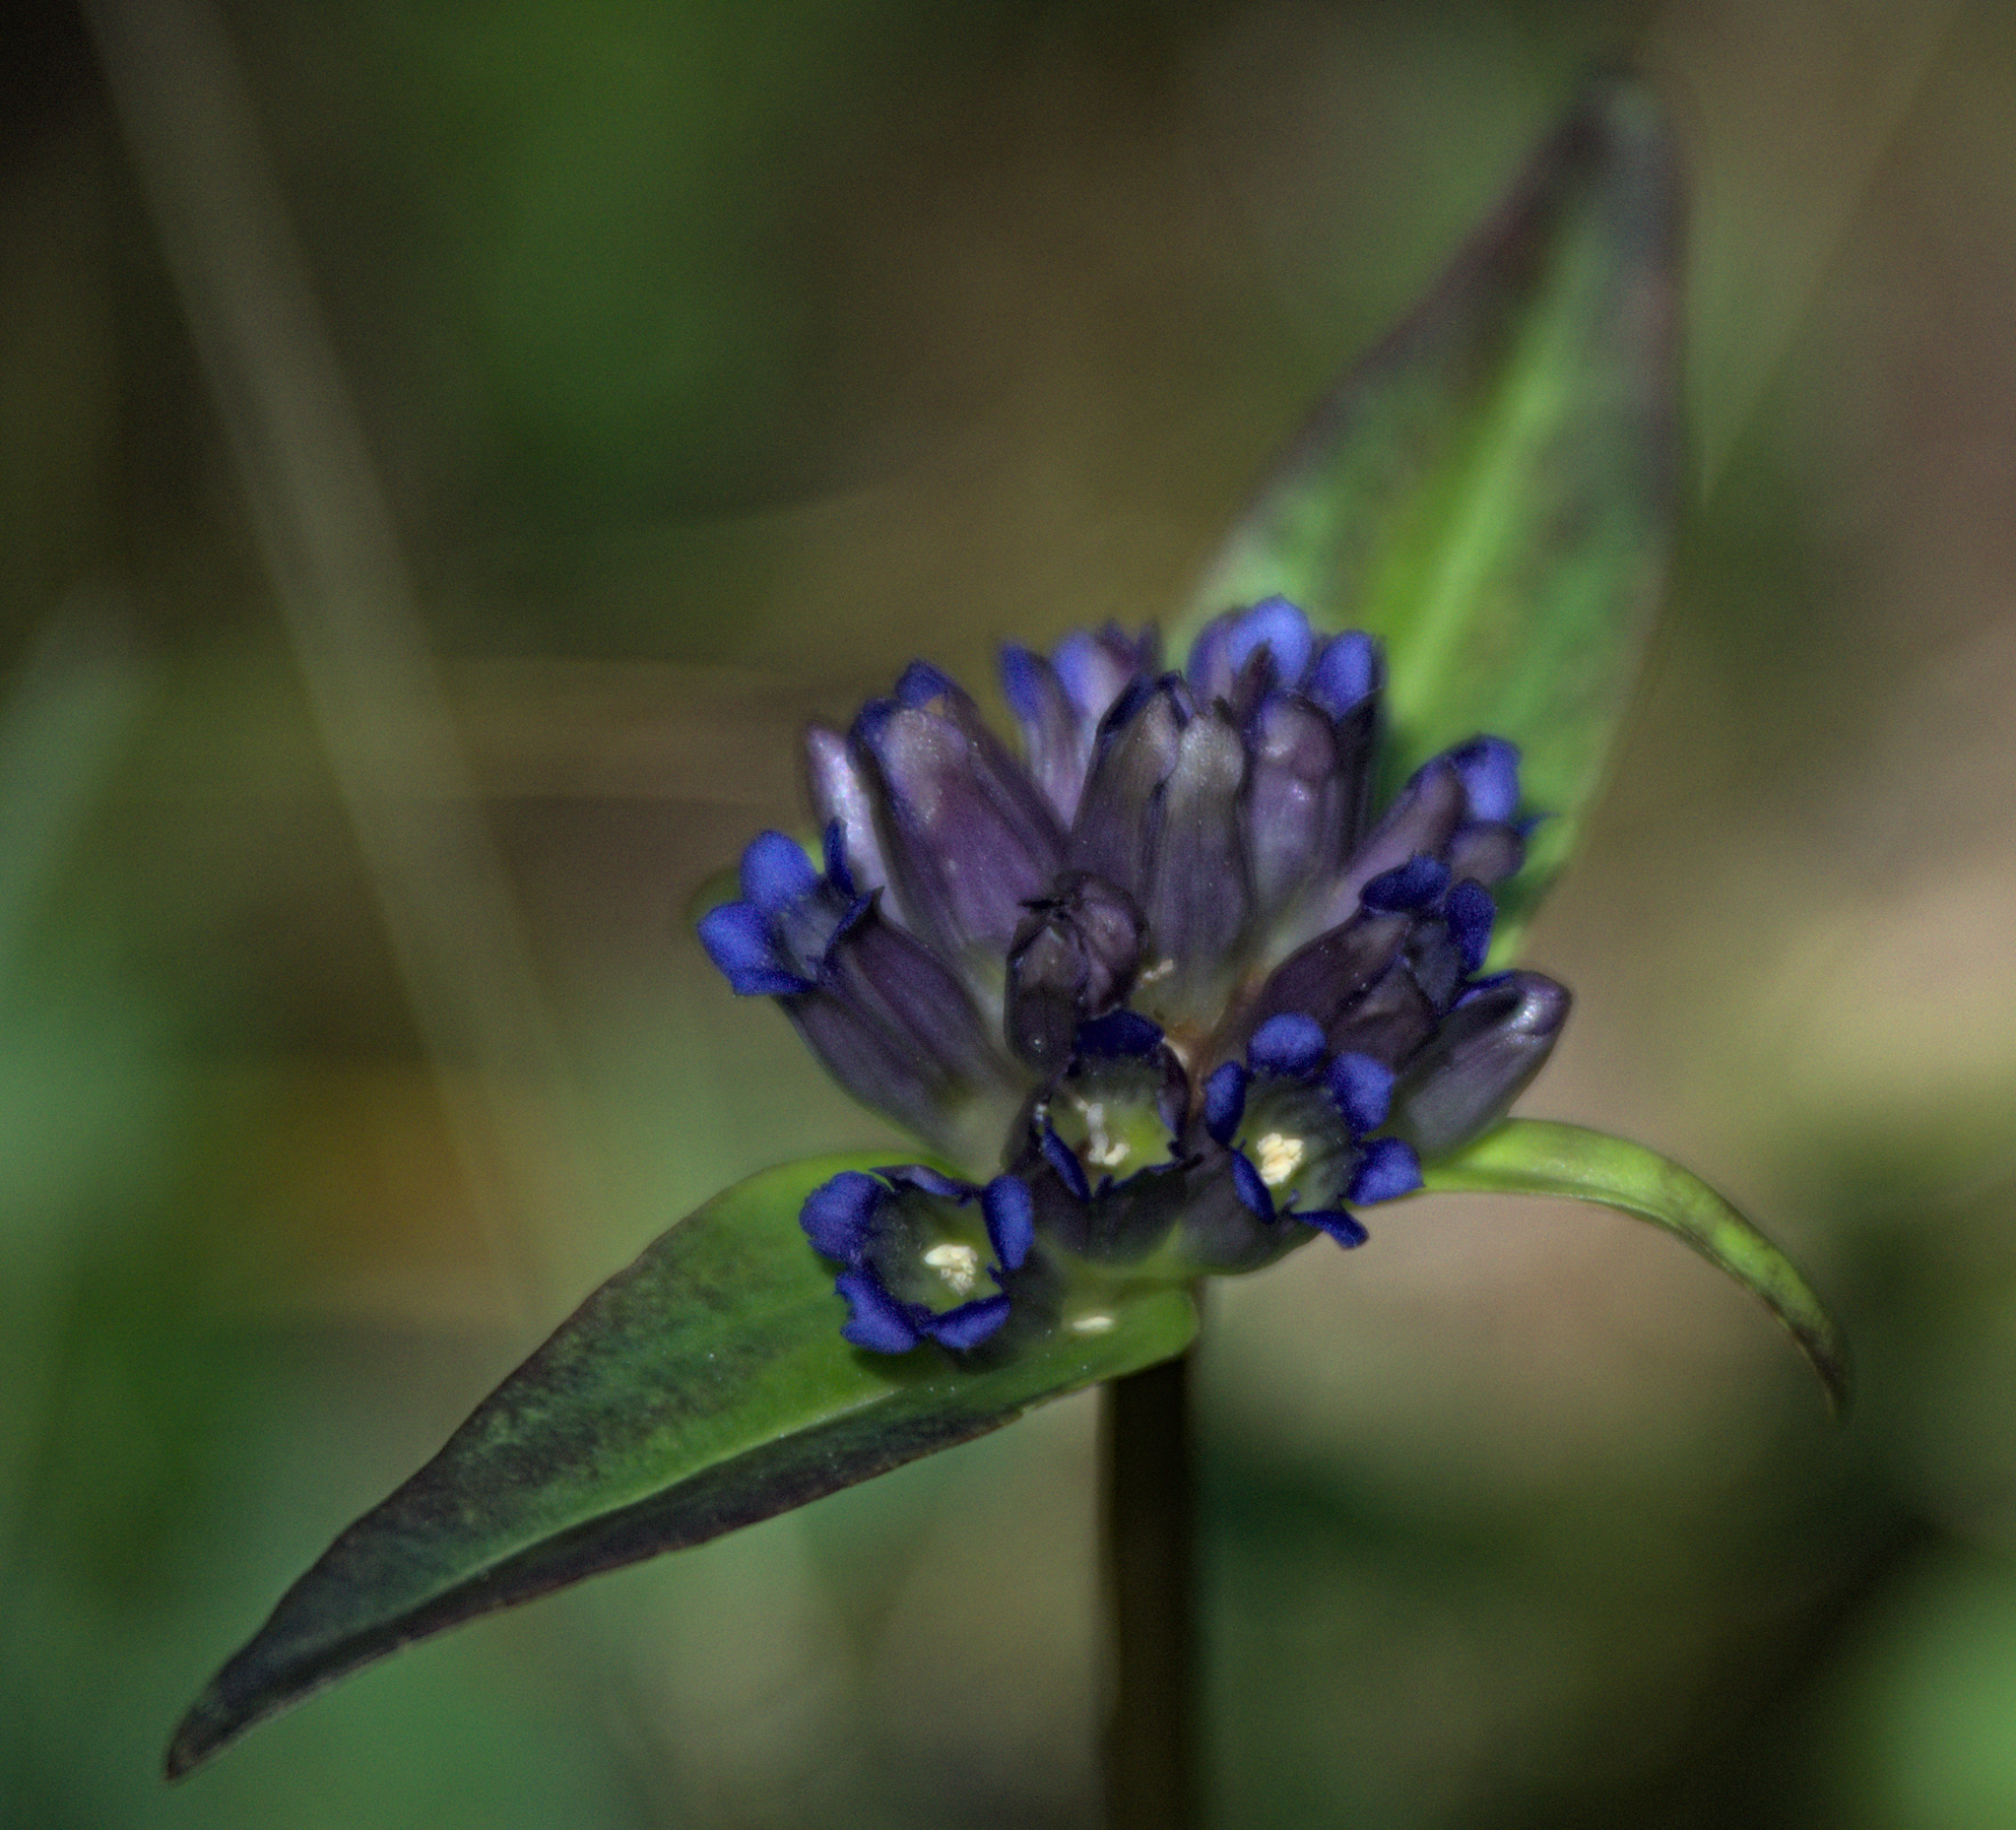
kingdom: Plantae
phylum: Tracheophyta
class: Magnoliopsida
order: Gentianales
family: Gentianaceae
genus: Gentiana
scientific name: Gentiana macrophylla
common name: Large-leaf gentian
